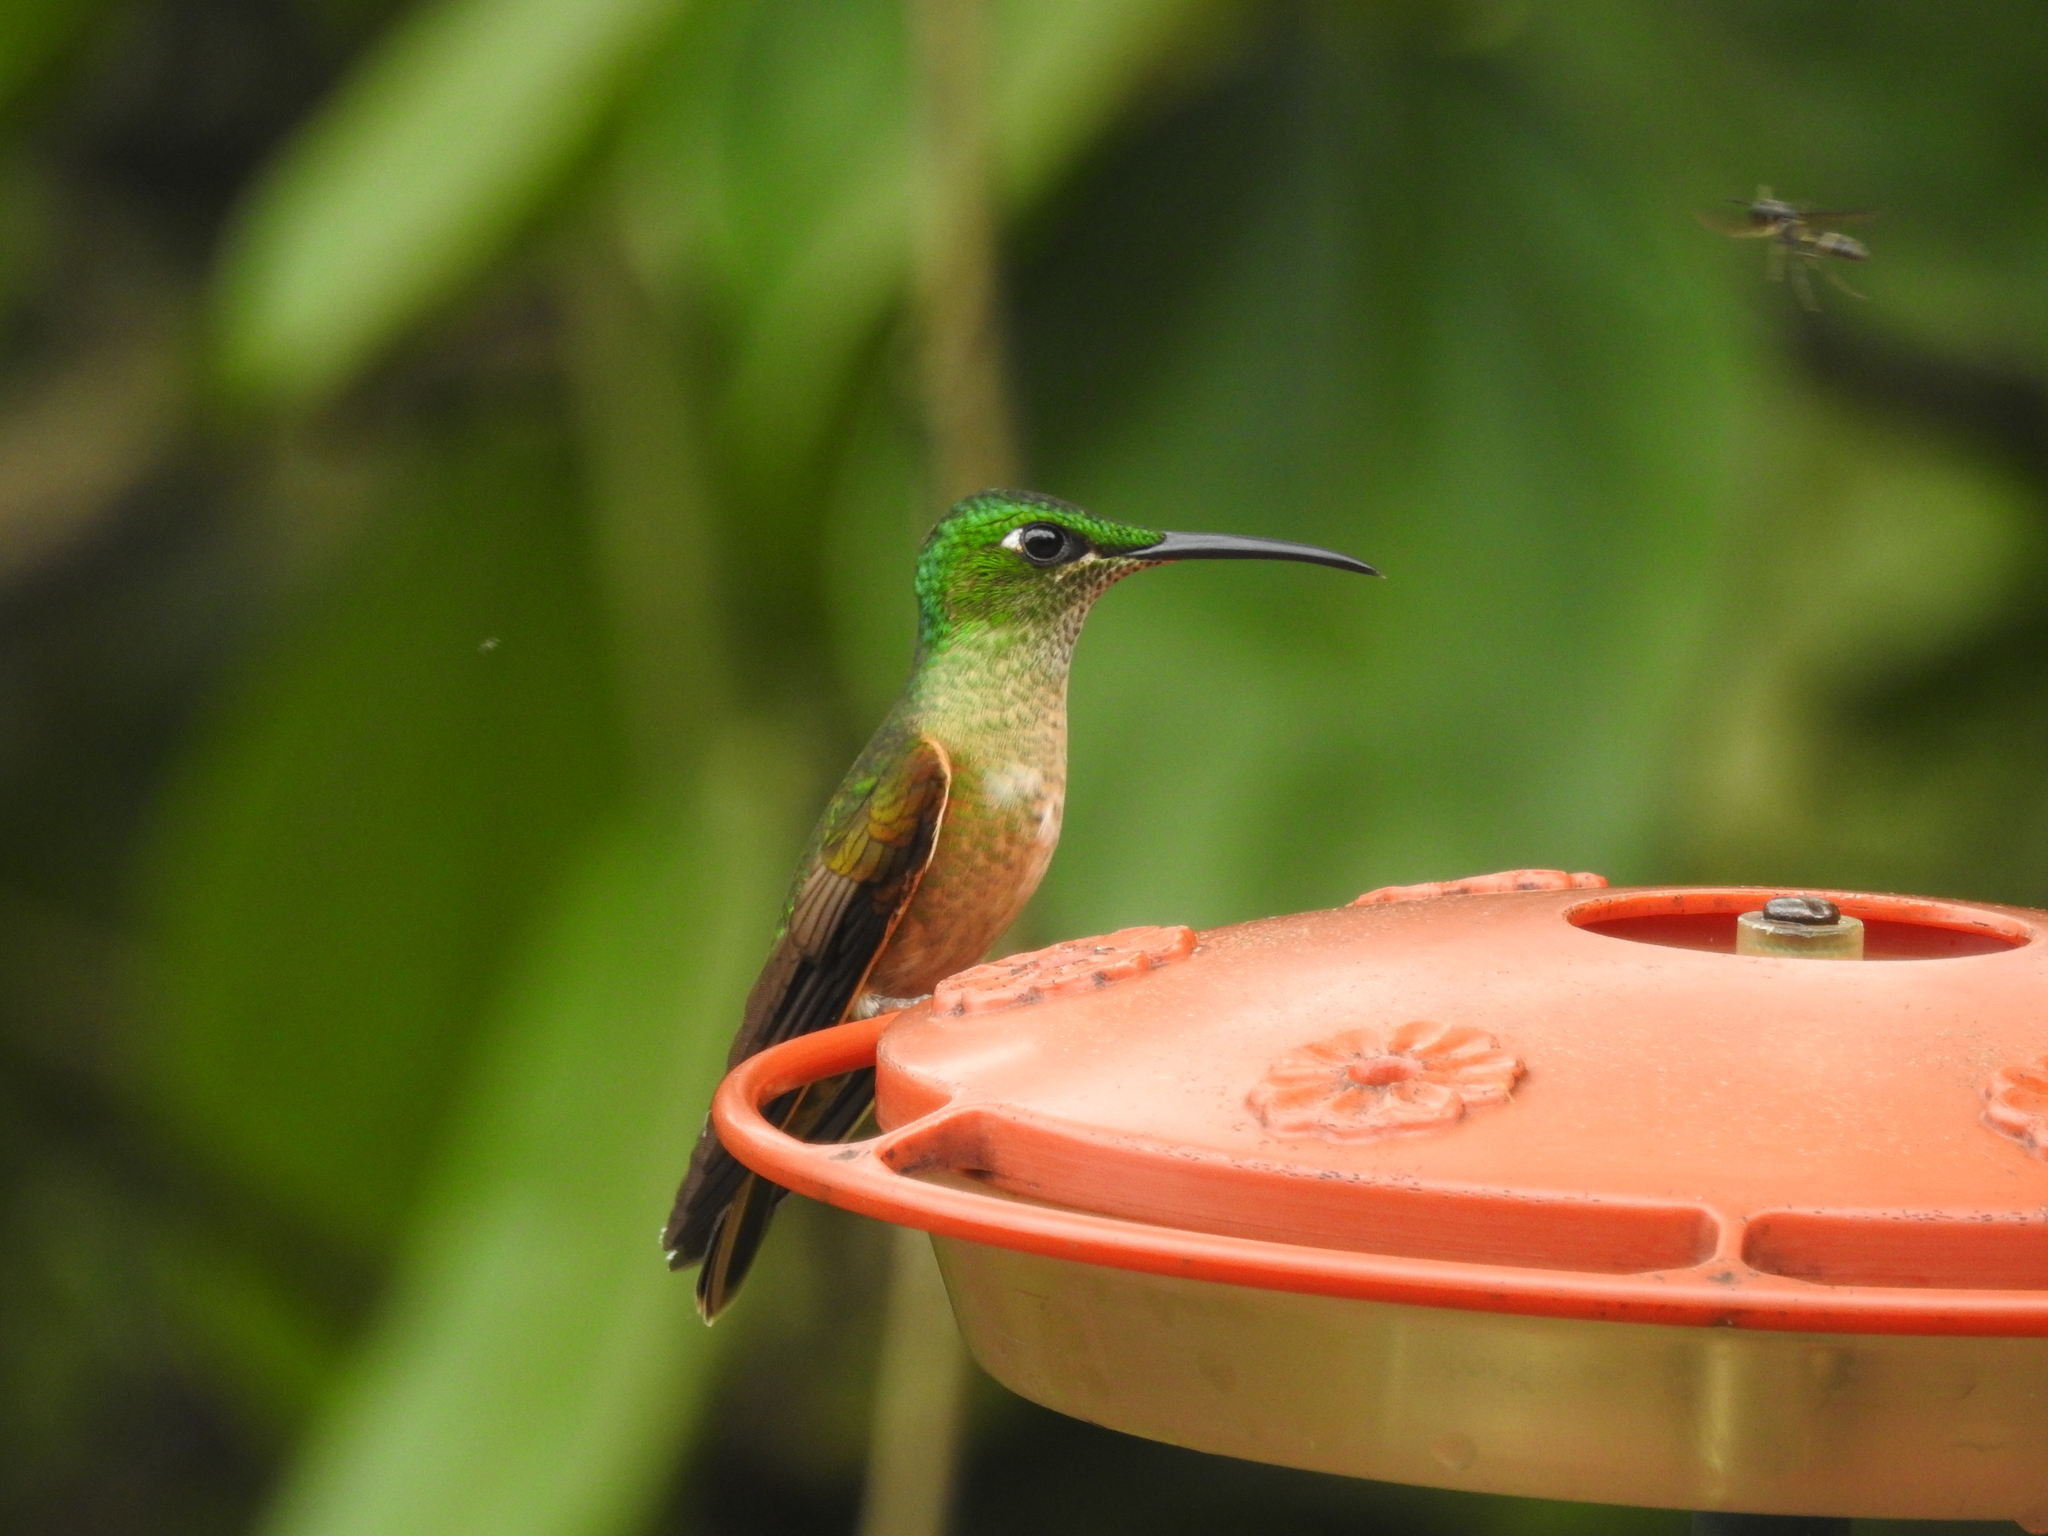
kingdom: Animalia
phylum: Chordata
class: Aves
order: Apodiformes
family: Trochilidae
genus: Heliodoxa
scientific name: Heliodoxa rubinoides
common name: Fawn-breasted brilliant
